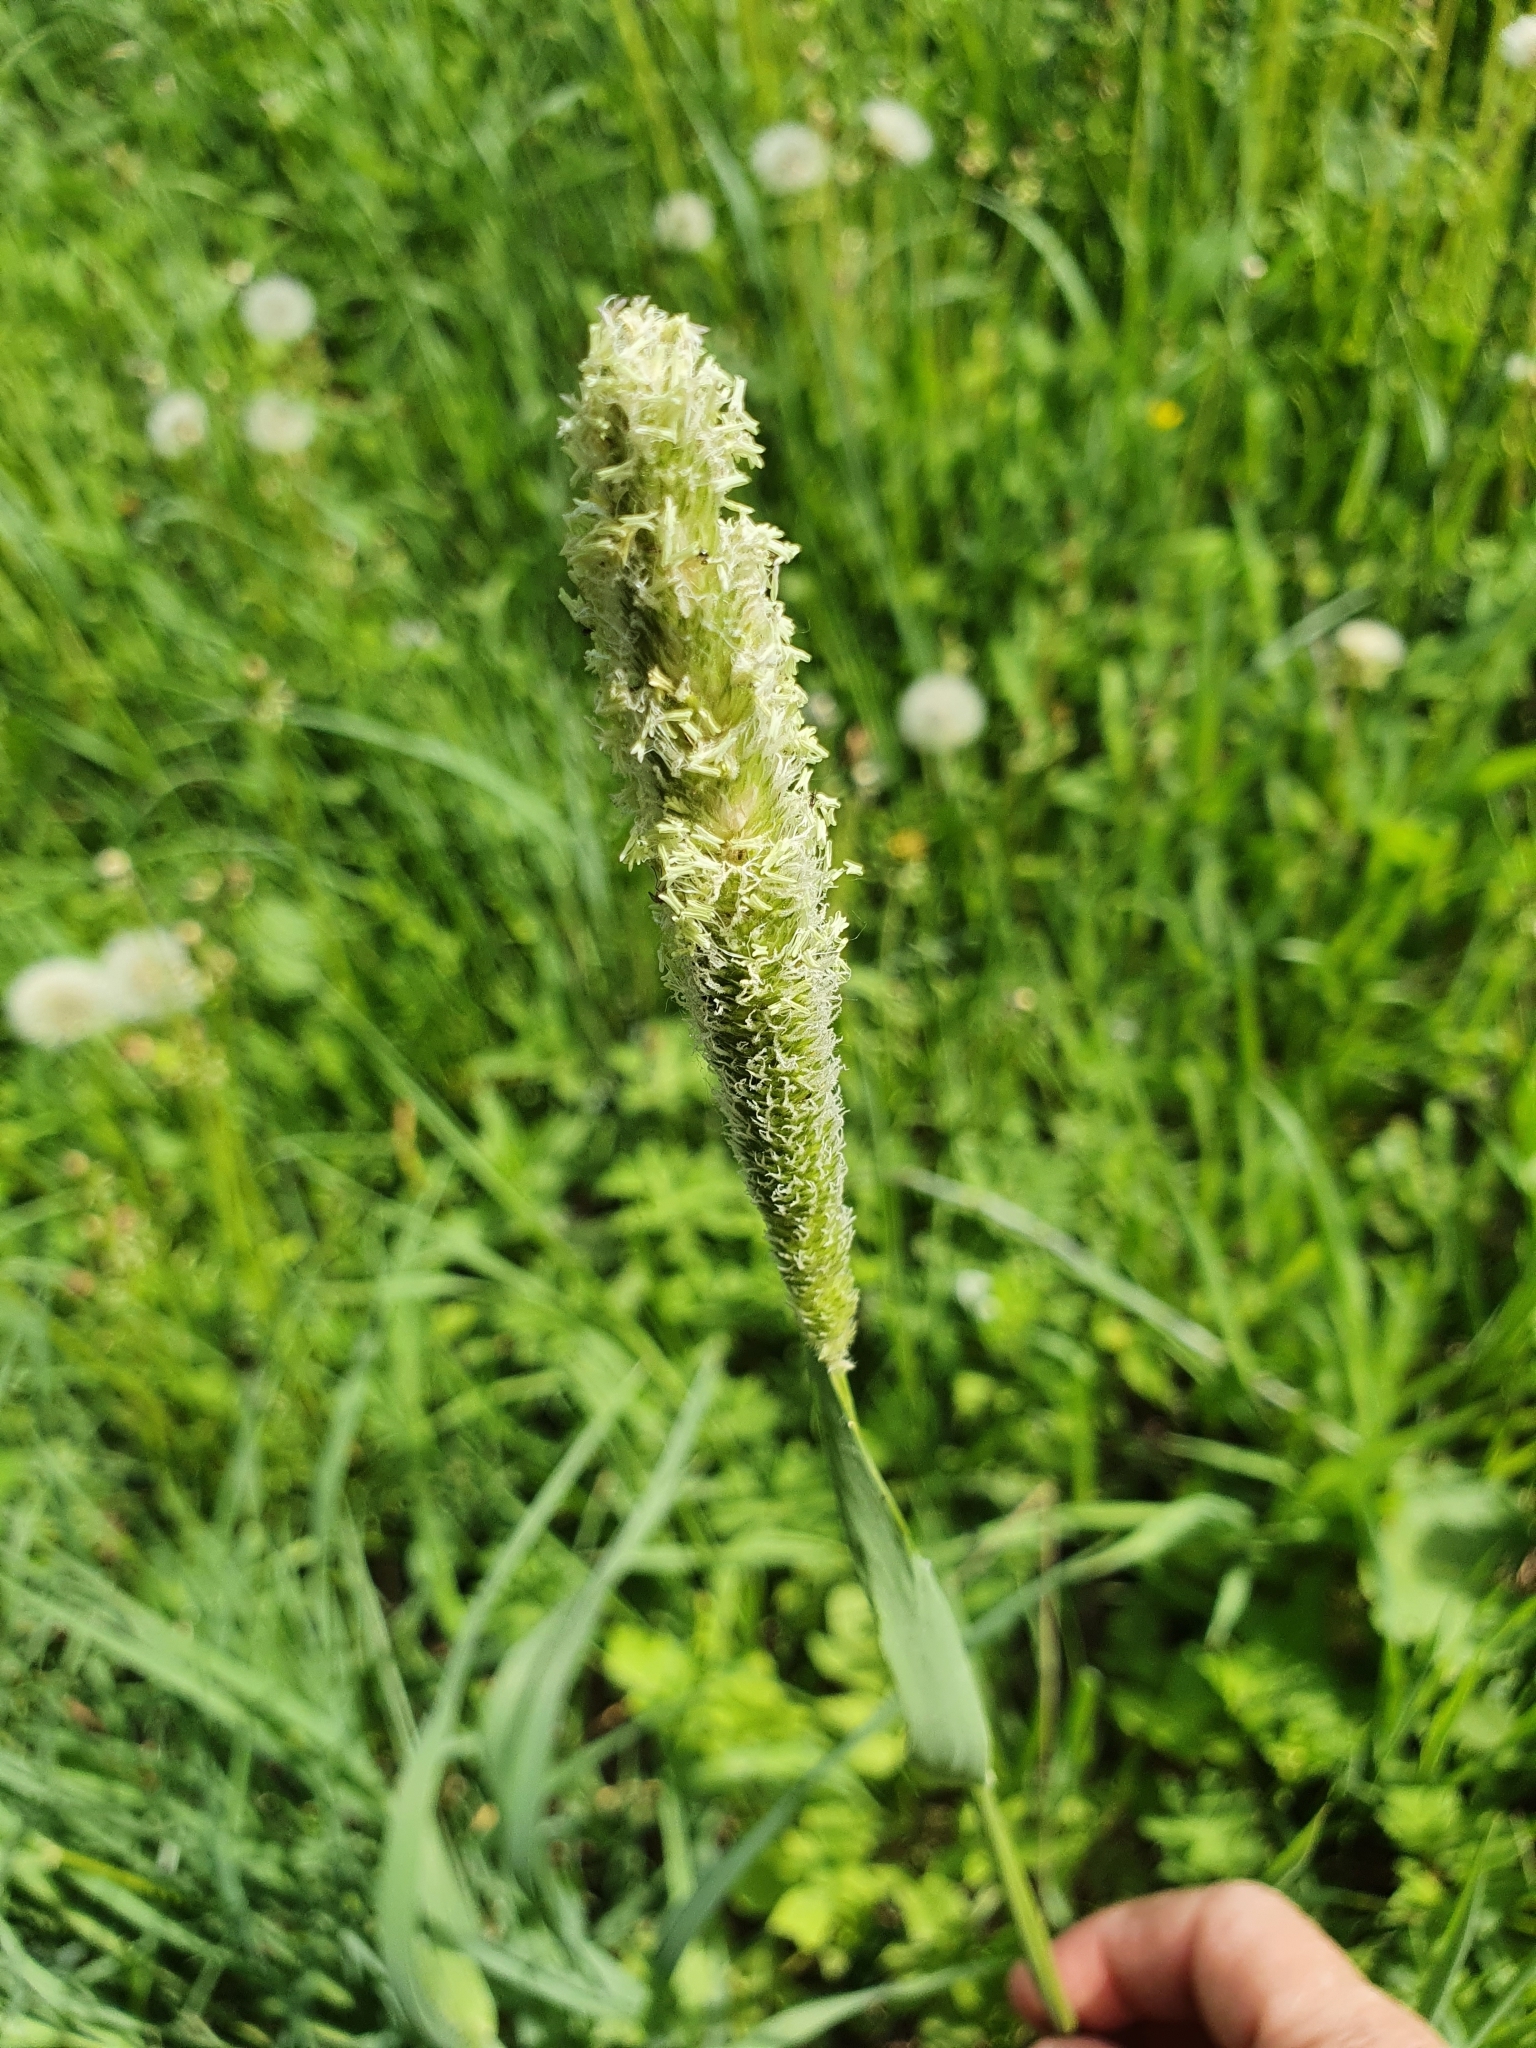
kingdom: Plantae
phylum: Tracheophyta
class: Liliopsida
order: Poales
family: Poaceae
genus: Alopecurus
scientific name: Alopecurus pratensis
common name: Meadow foxtail
